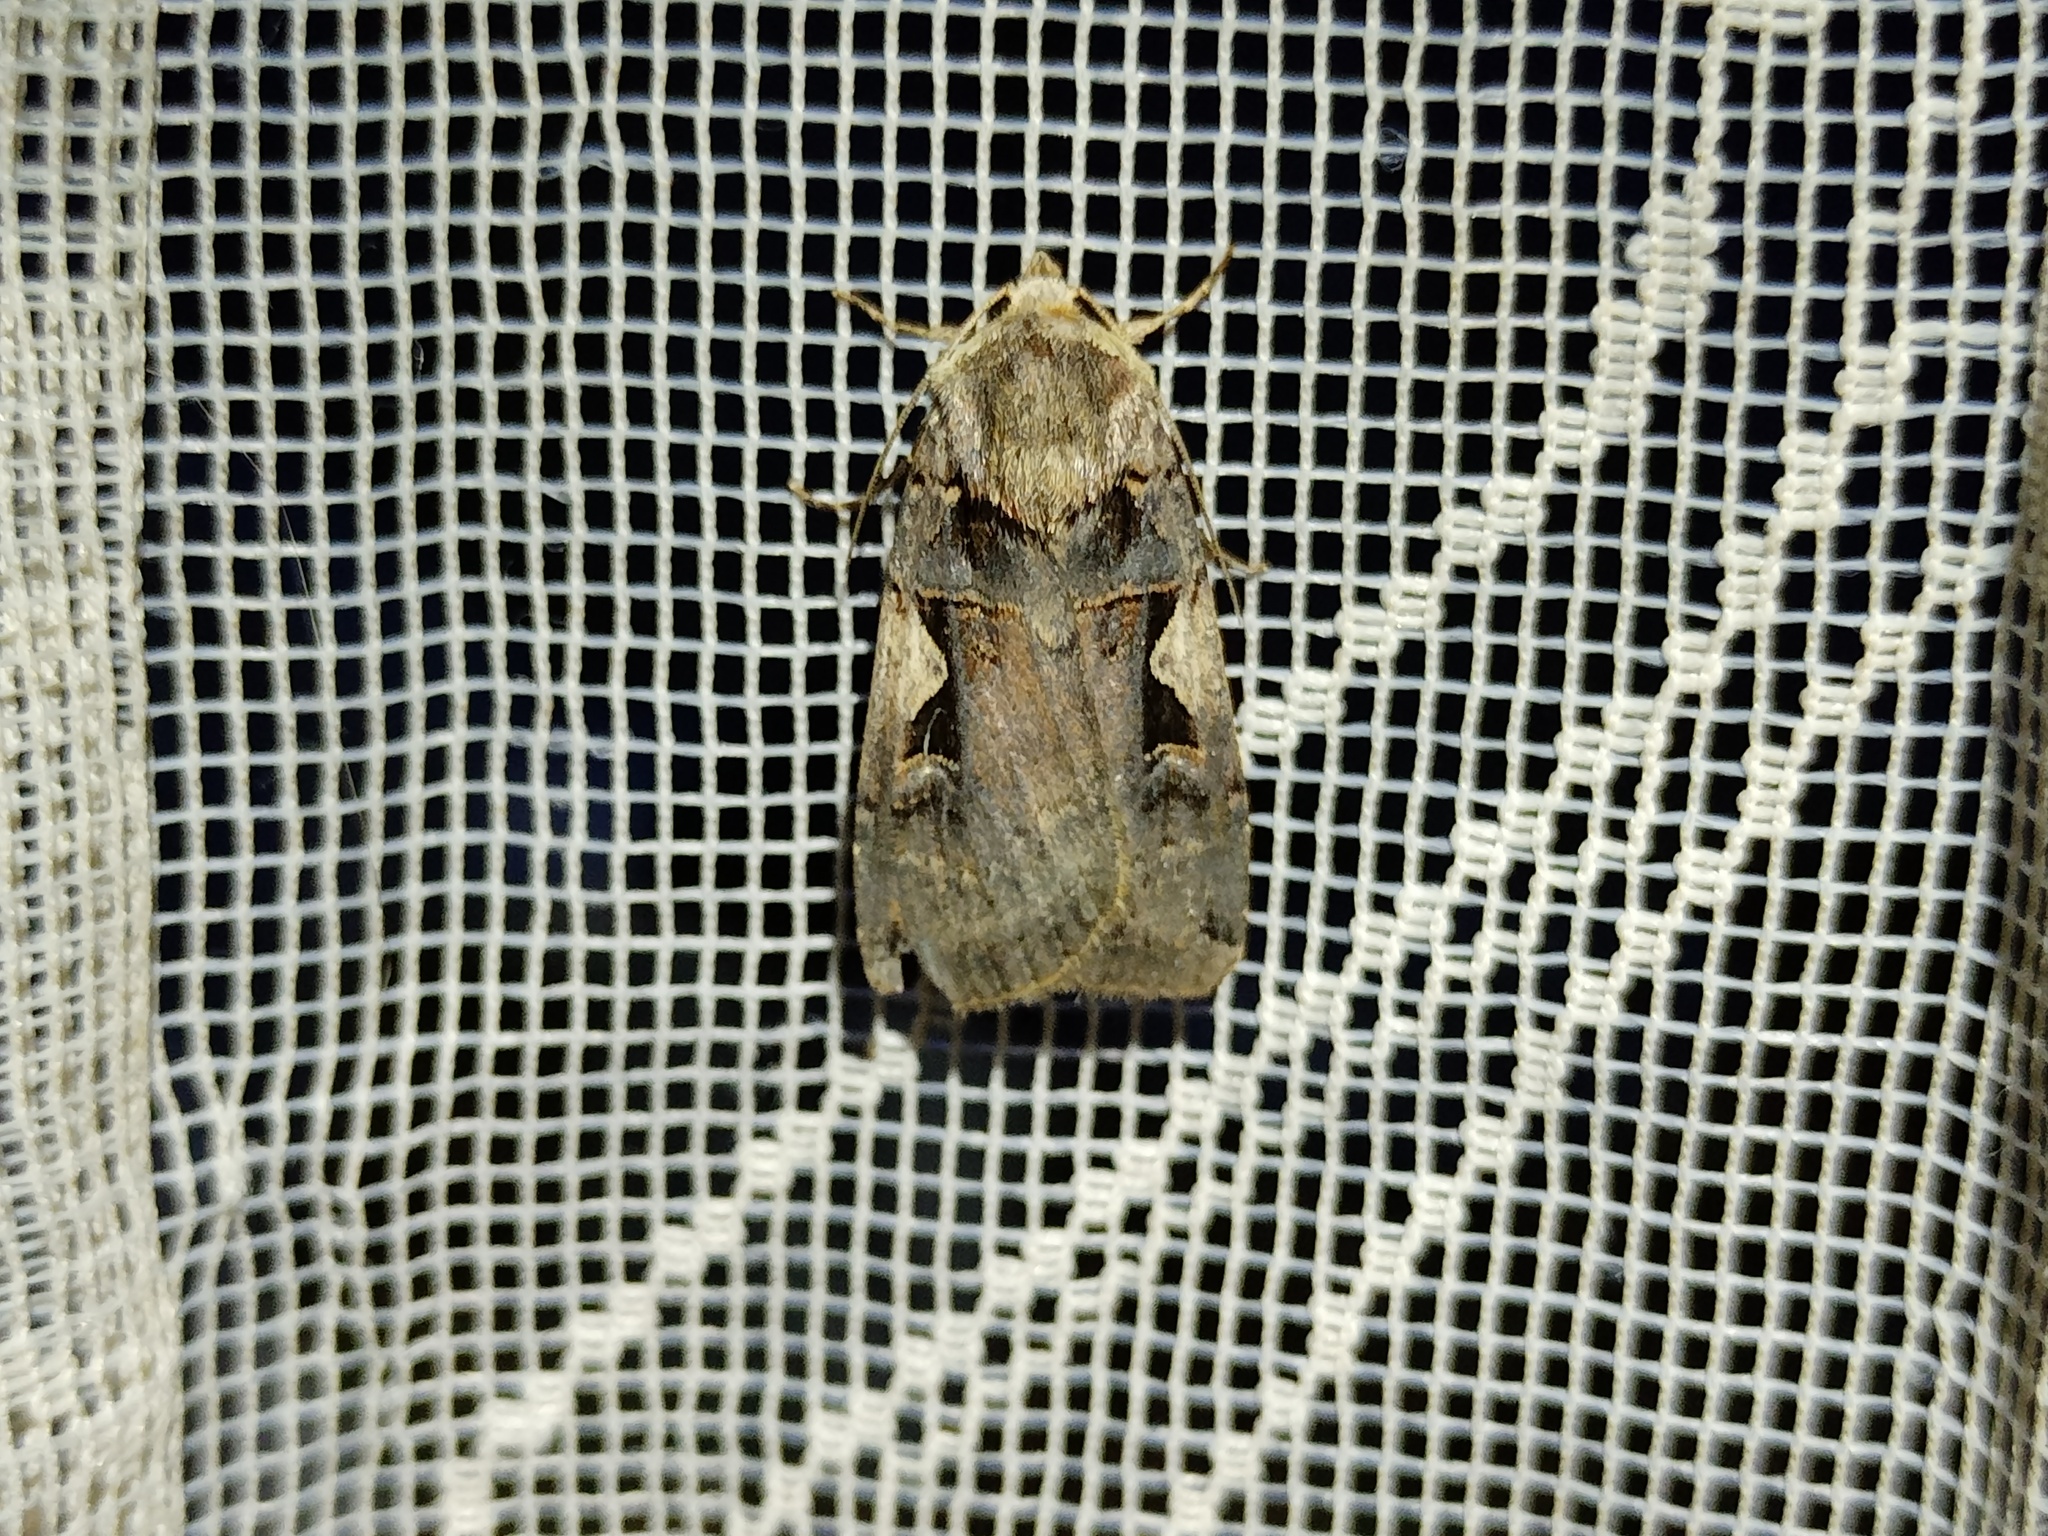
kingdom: Animalia
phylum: Arthropoda
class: Insecta
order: Lepidoptera
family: Noctuidae
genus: Xestia
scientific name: Xestia c-nigrum
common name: Setaceous hebrew character
